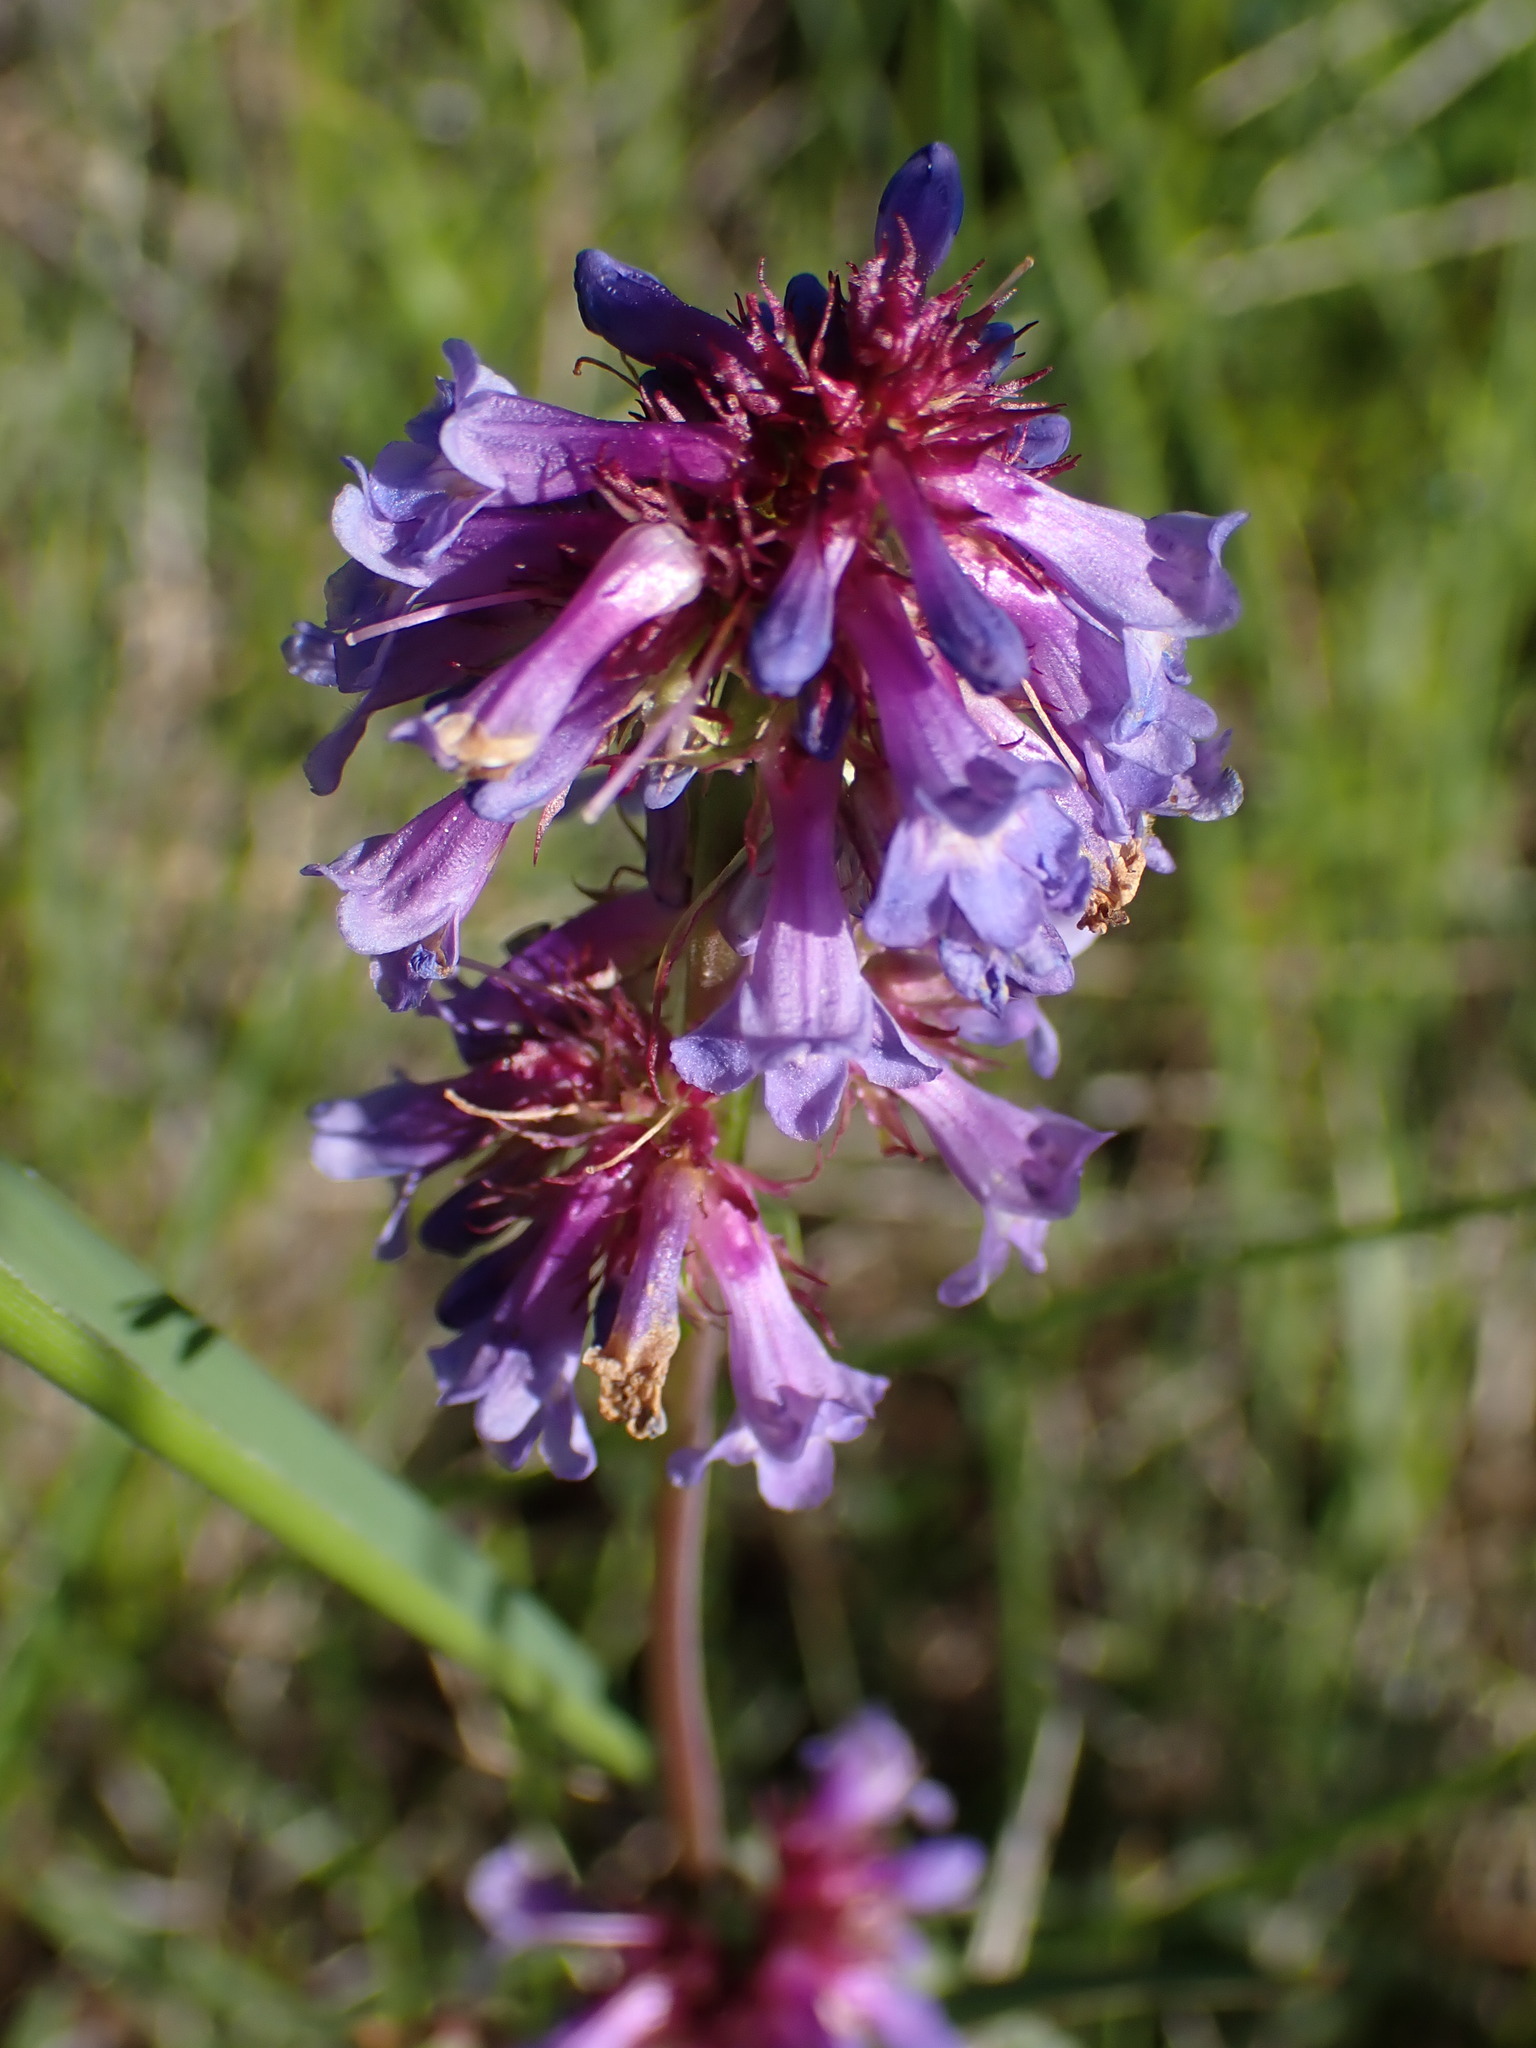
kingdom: Plantae
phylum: Tracheophyta
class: Magnoliopsida
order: Lamiales
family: Plantaginaceae
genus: Penstemon
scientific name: Penstemon procerus
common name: Small-flower penstemon
